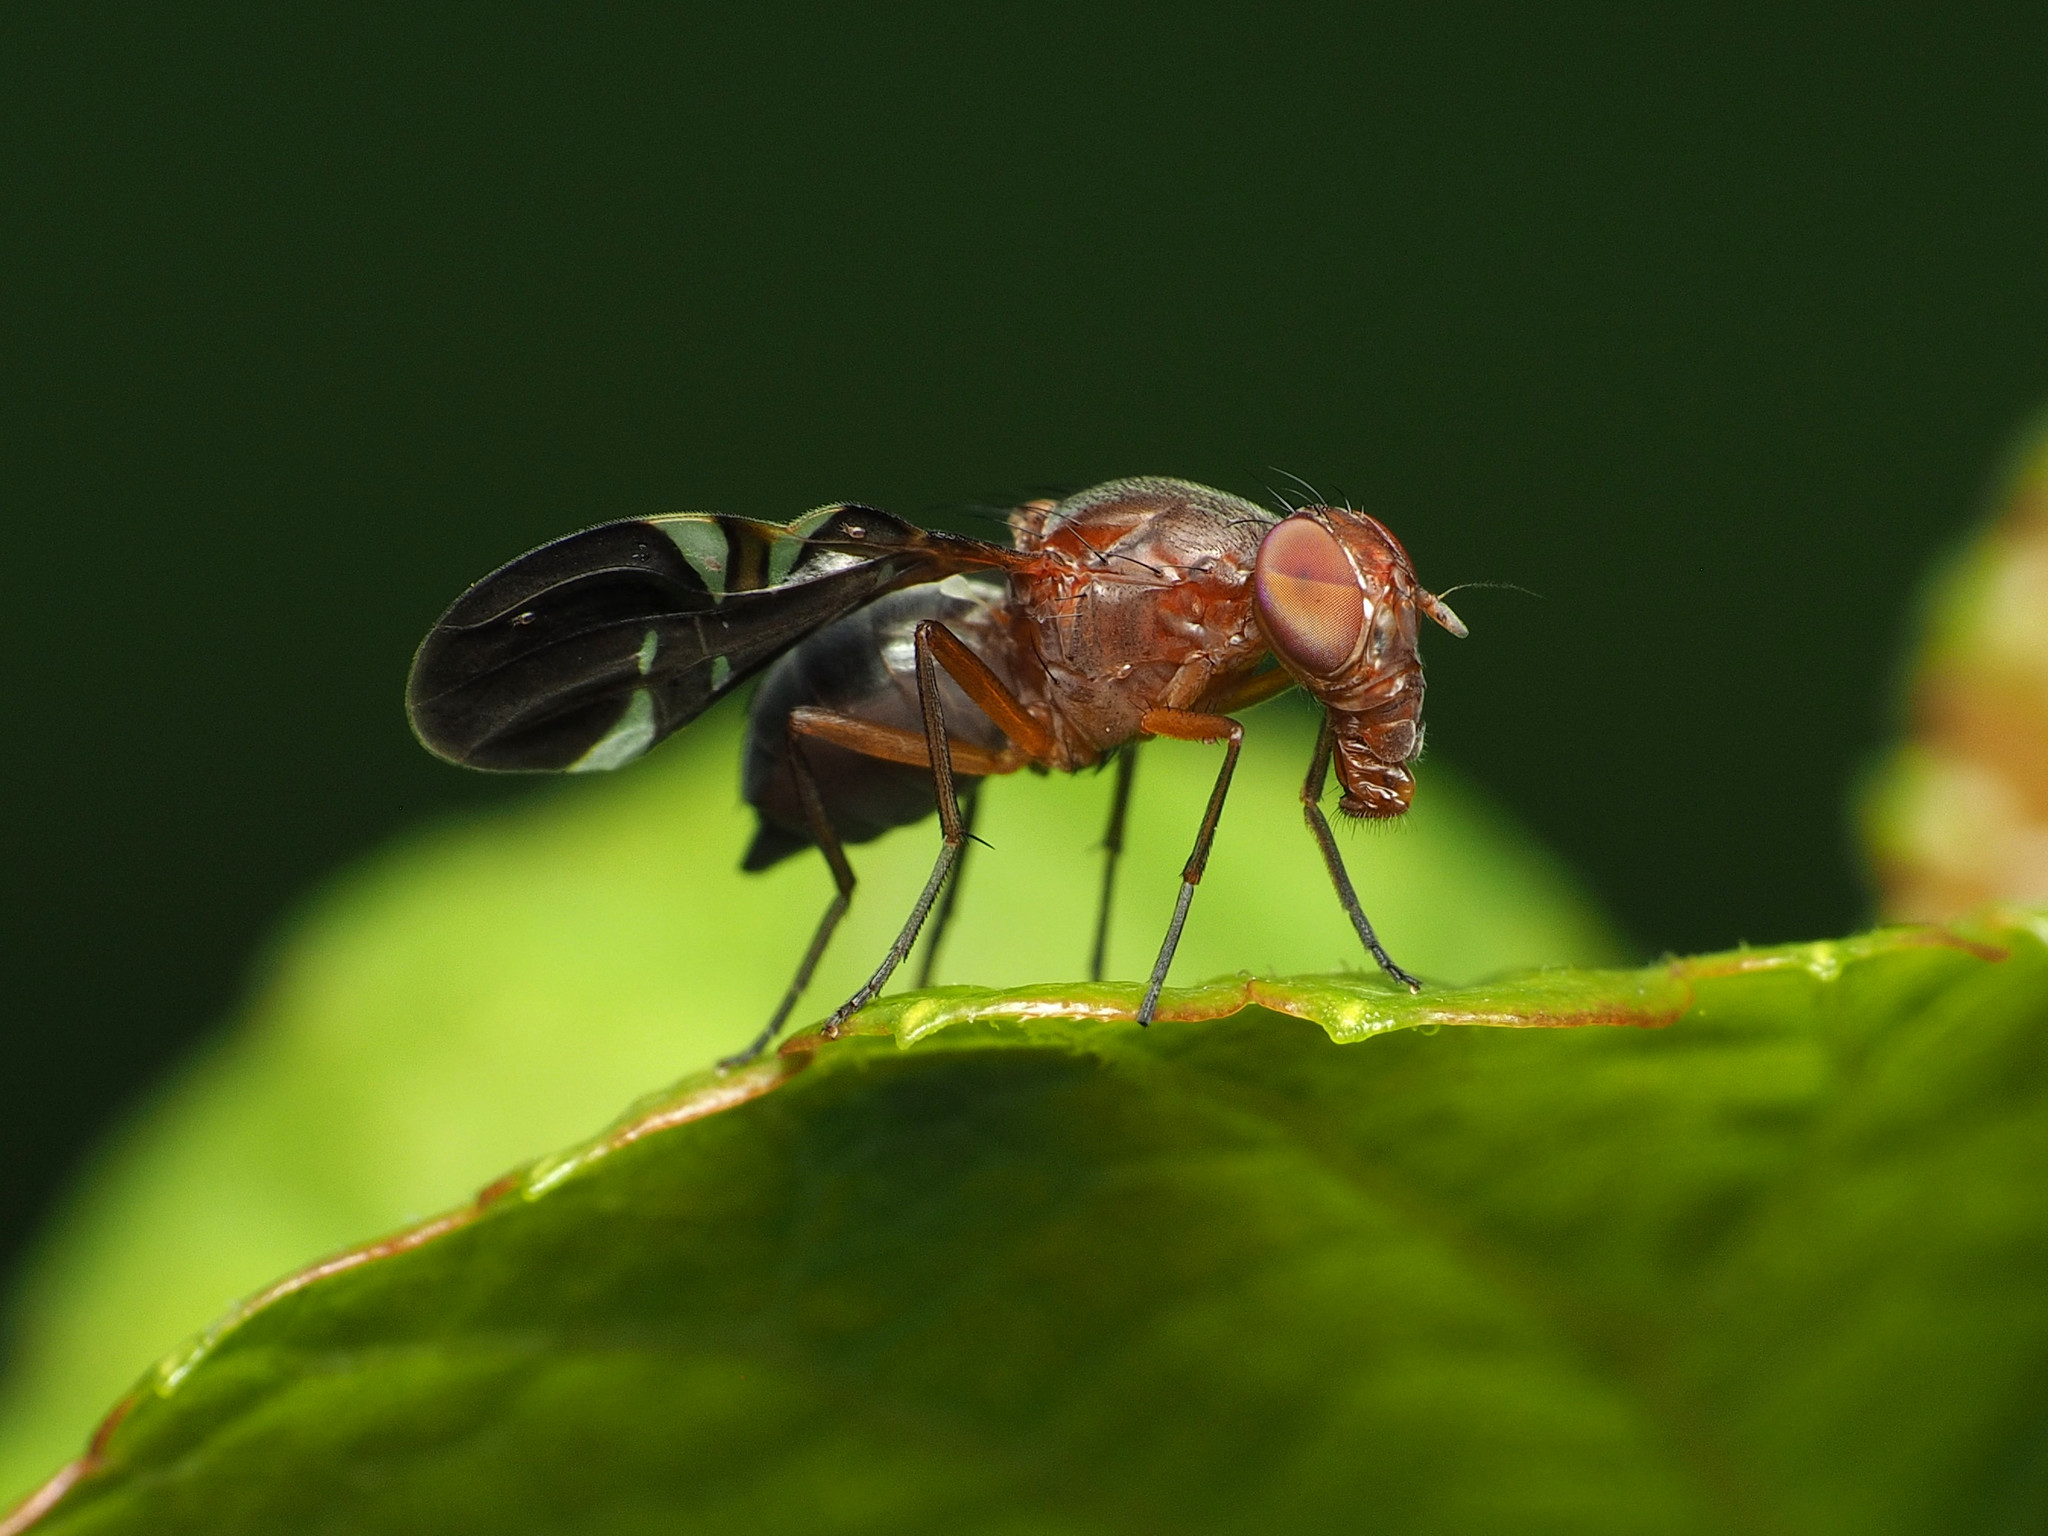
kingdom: Animalia
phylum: Arthropoda
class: Insecta
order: Diptera
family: Ulidiidae
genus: Delphinia
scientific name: Delphinia picta
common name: Common picture-winged fly
